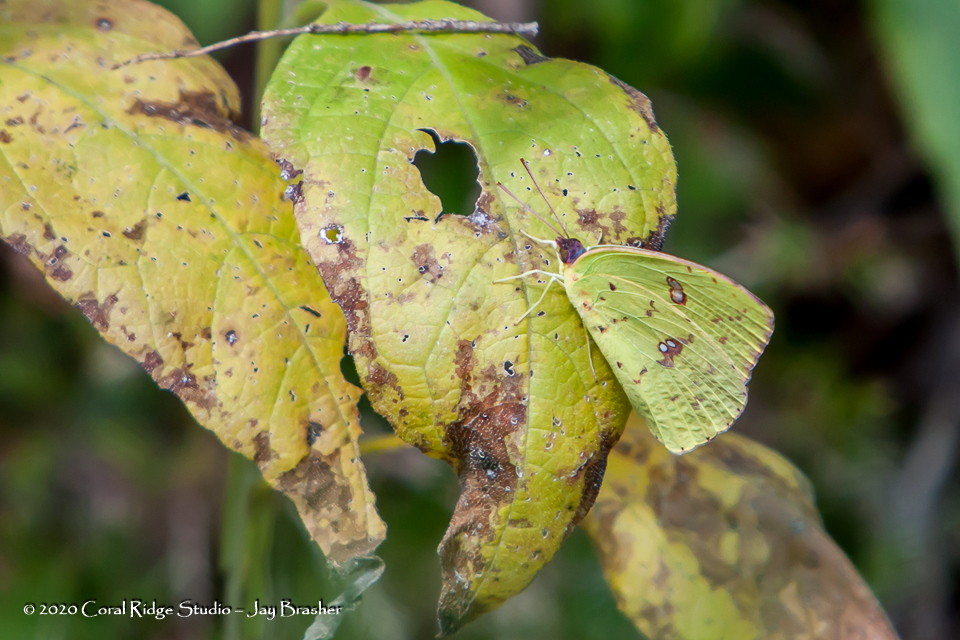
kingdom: Animalia
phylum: Arthropoda
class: Insecta
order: Lepidoptera
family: Pieridae
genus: Phoebis
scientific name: Phoebis sennae
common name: Cloudless sulphur
